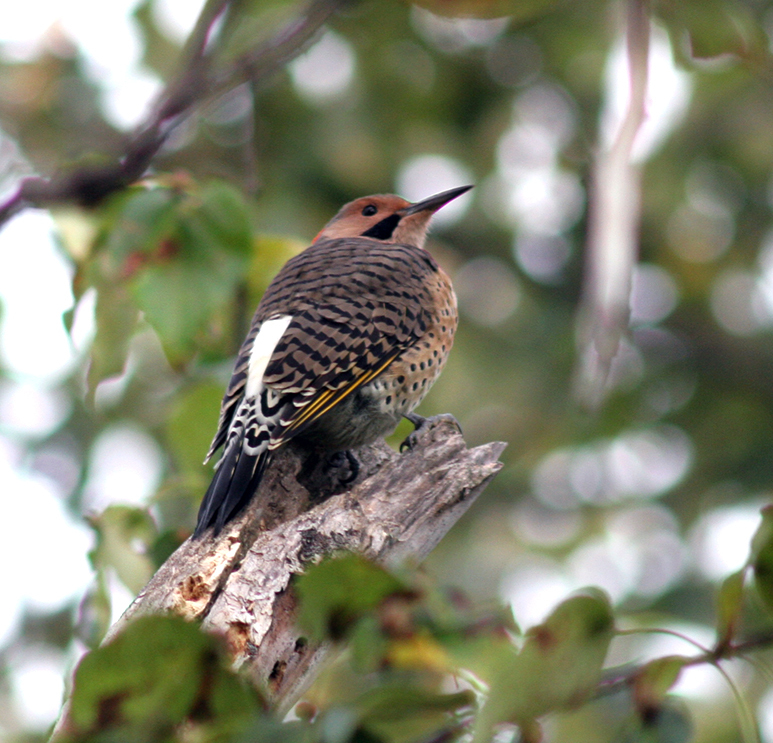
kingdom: Animalia
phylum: Chordata
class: Aves
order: Piciformes
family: Picidae
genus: Colaptes
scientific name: Colaptes auratus
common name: Northern flicker
